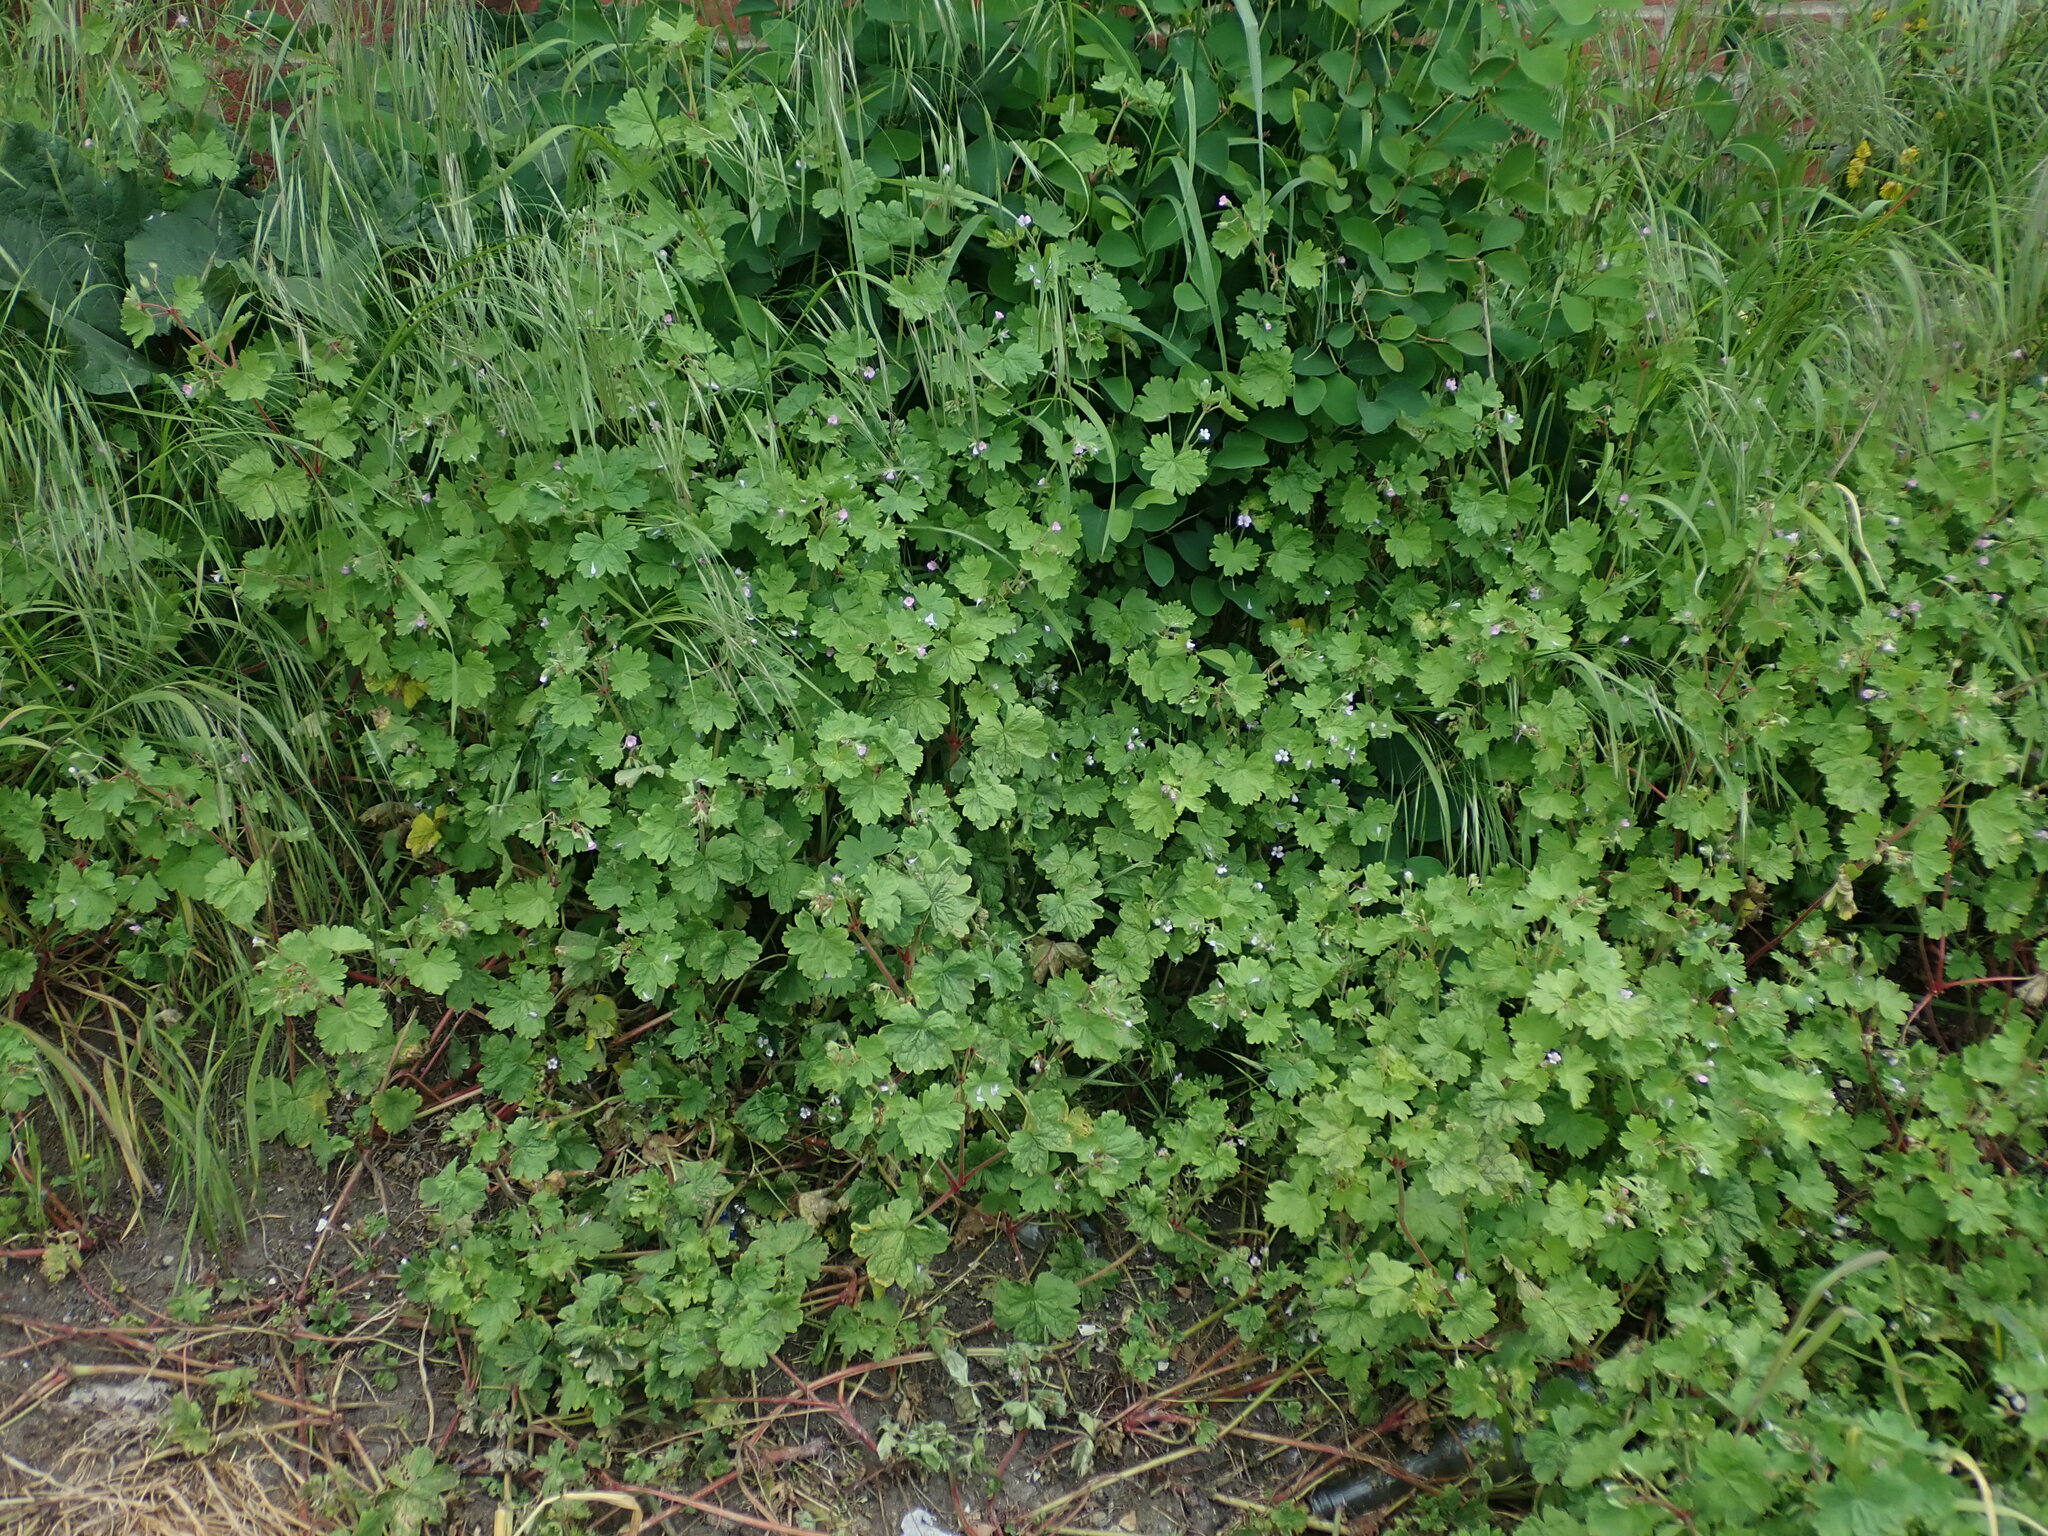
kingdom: Plantae
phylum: Tracheophyta
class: Magnoliopsida
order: Geraniales
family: Geraniaceae
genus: Geranium
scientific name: Geranium rotundifolium
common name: Round-leaved crane's-bill
